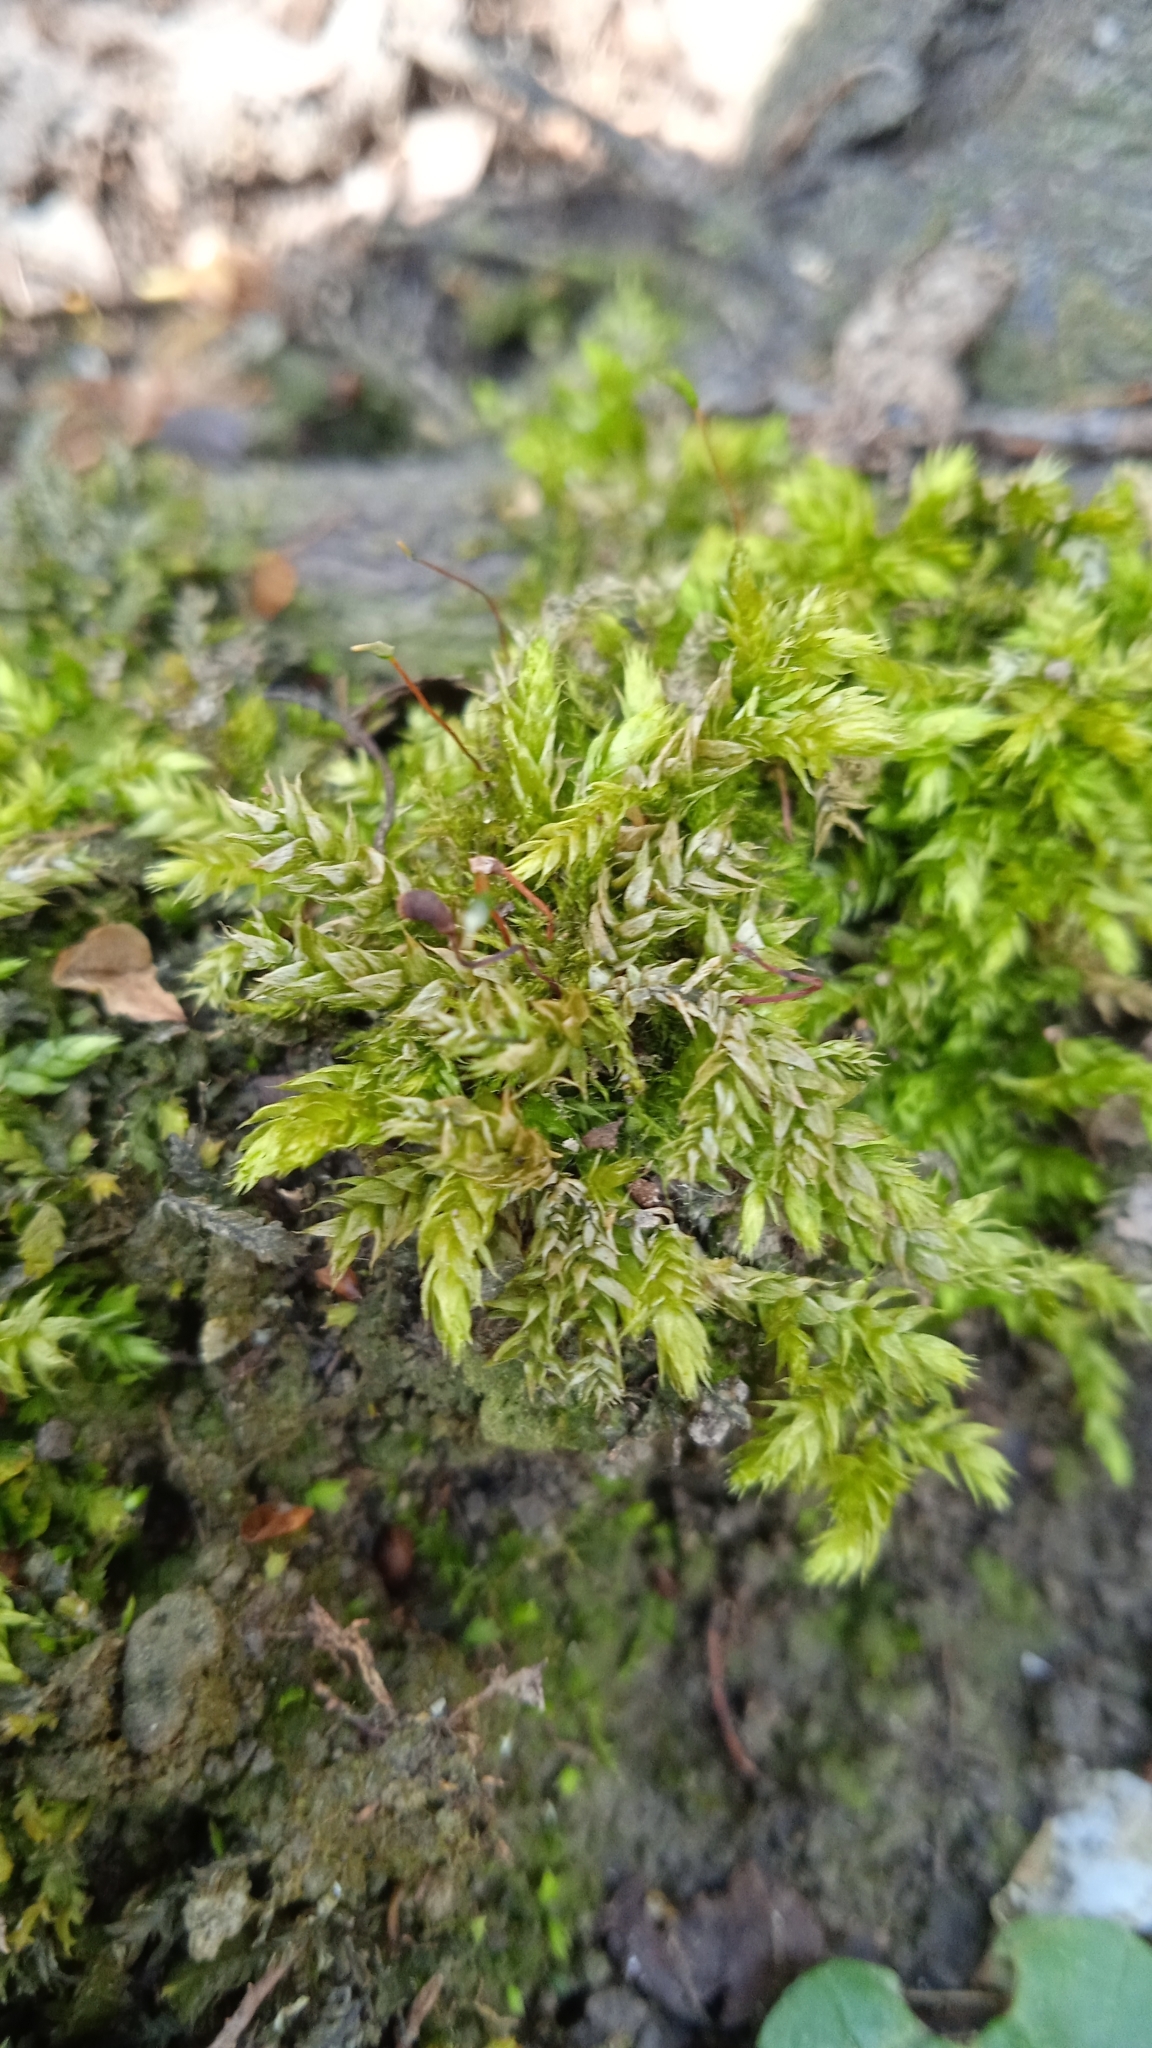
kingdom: Plantae
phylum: Bryophyta
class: Bryopsida
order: Hypnales
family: Brachytheciaceae
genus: Brachythecium
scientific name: Brachythecium rutabulum
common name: Rough-stalked feather-moss
